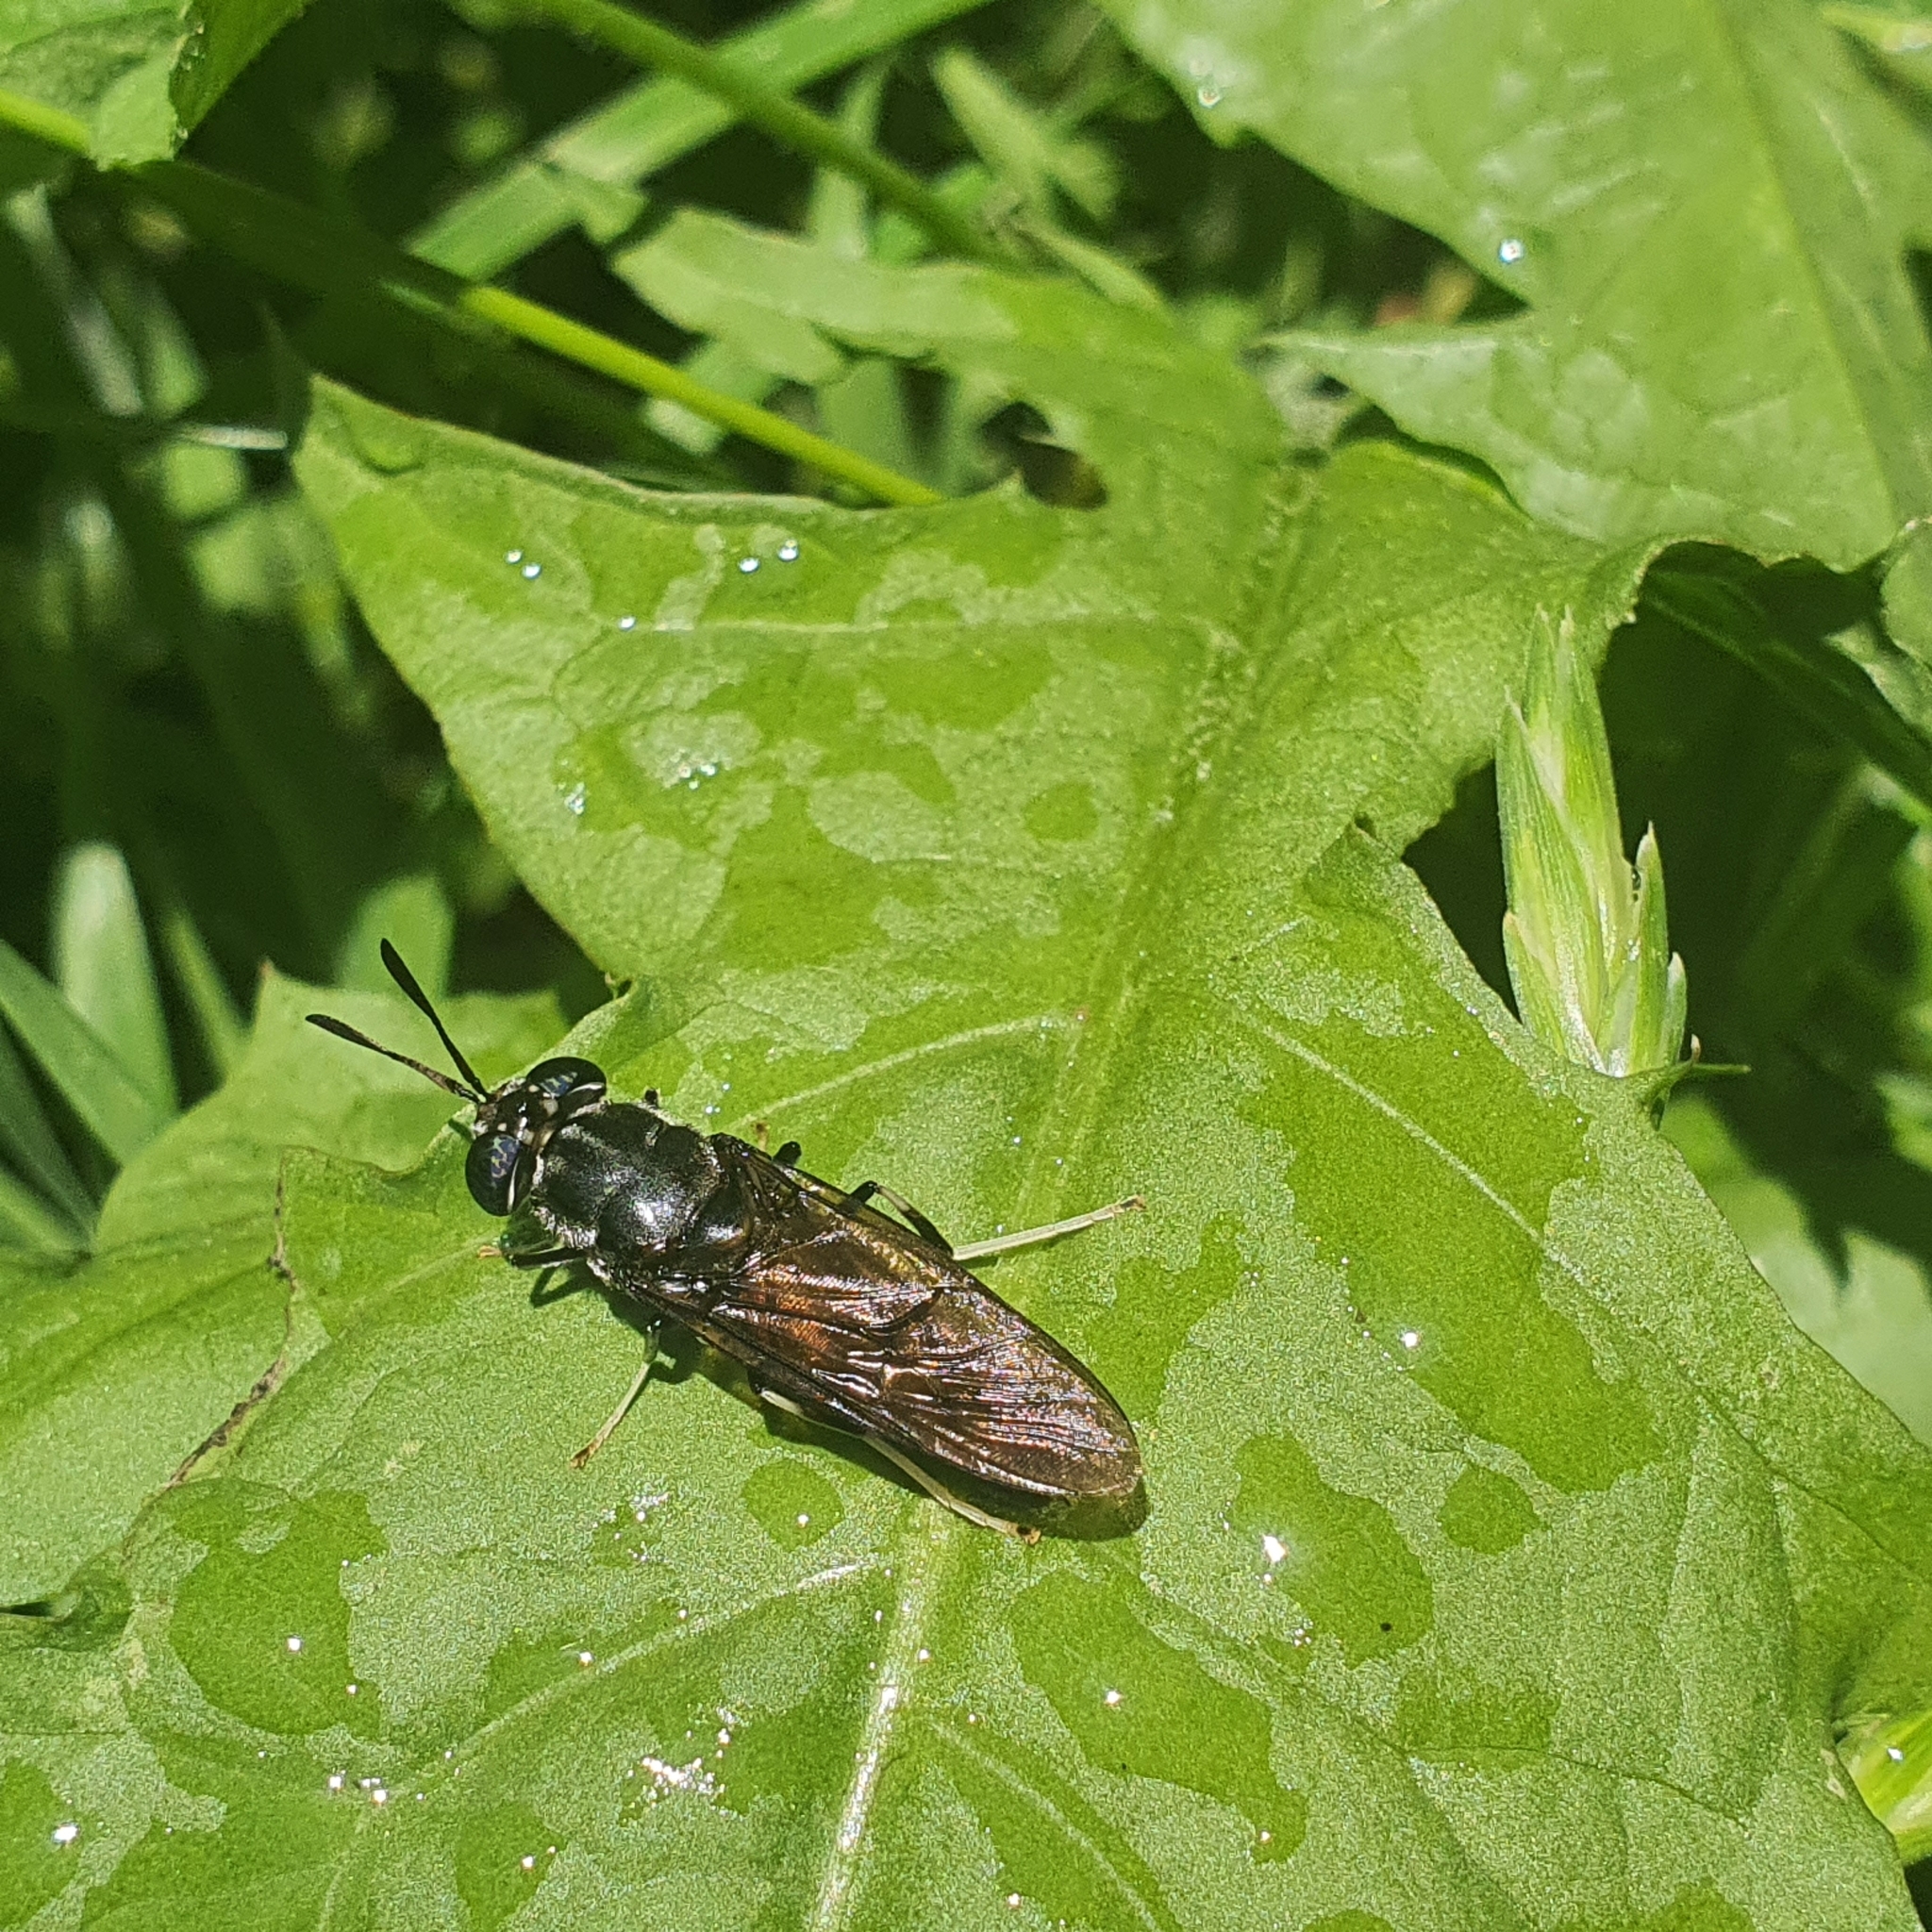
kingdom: Animalia
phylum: Arthropoda
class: Insecta
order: Diptera
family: Stratiomyidae
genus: Hermetia
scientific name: Hermetia illucens
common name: Black soldier fly
